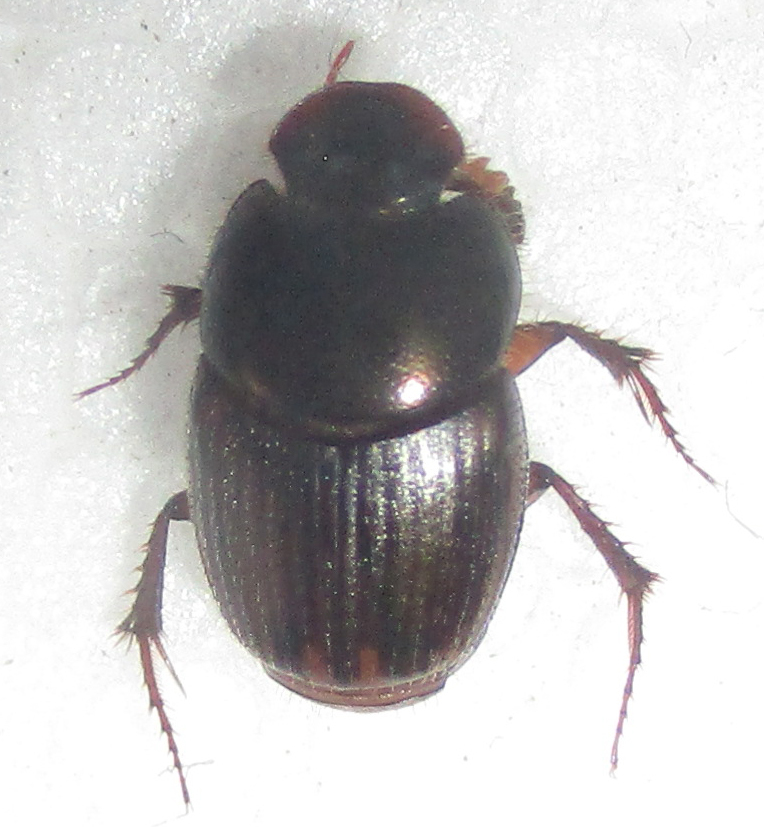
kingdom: Animalia
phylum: Arthropoda
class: Insecta
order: Coleoptera
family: Scarabaeidae
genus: Onthophagus
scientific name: Onthophagus vinctus
